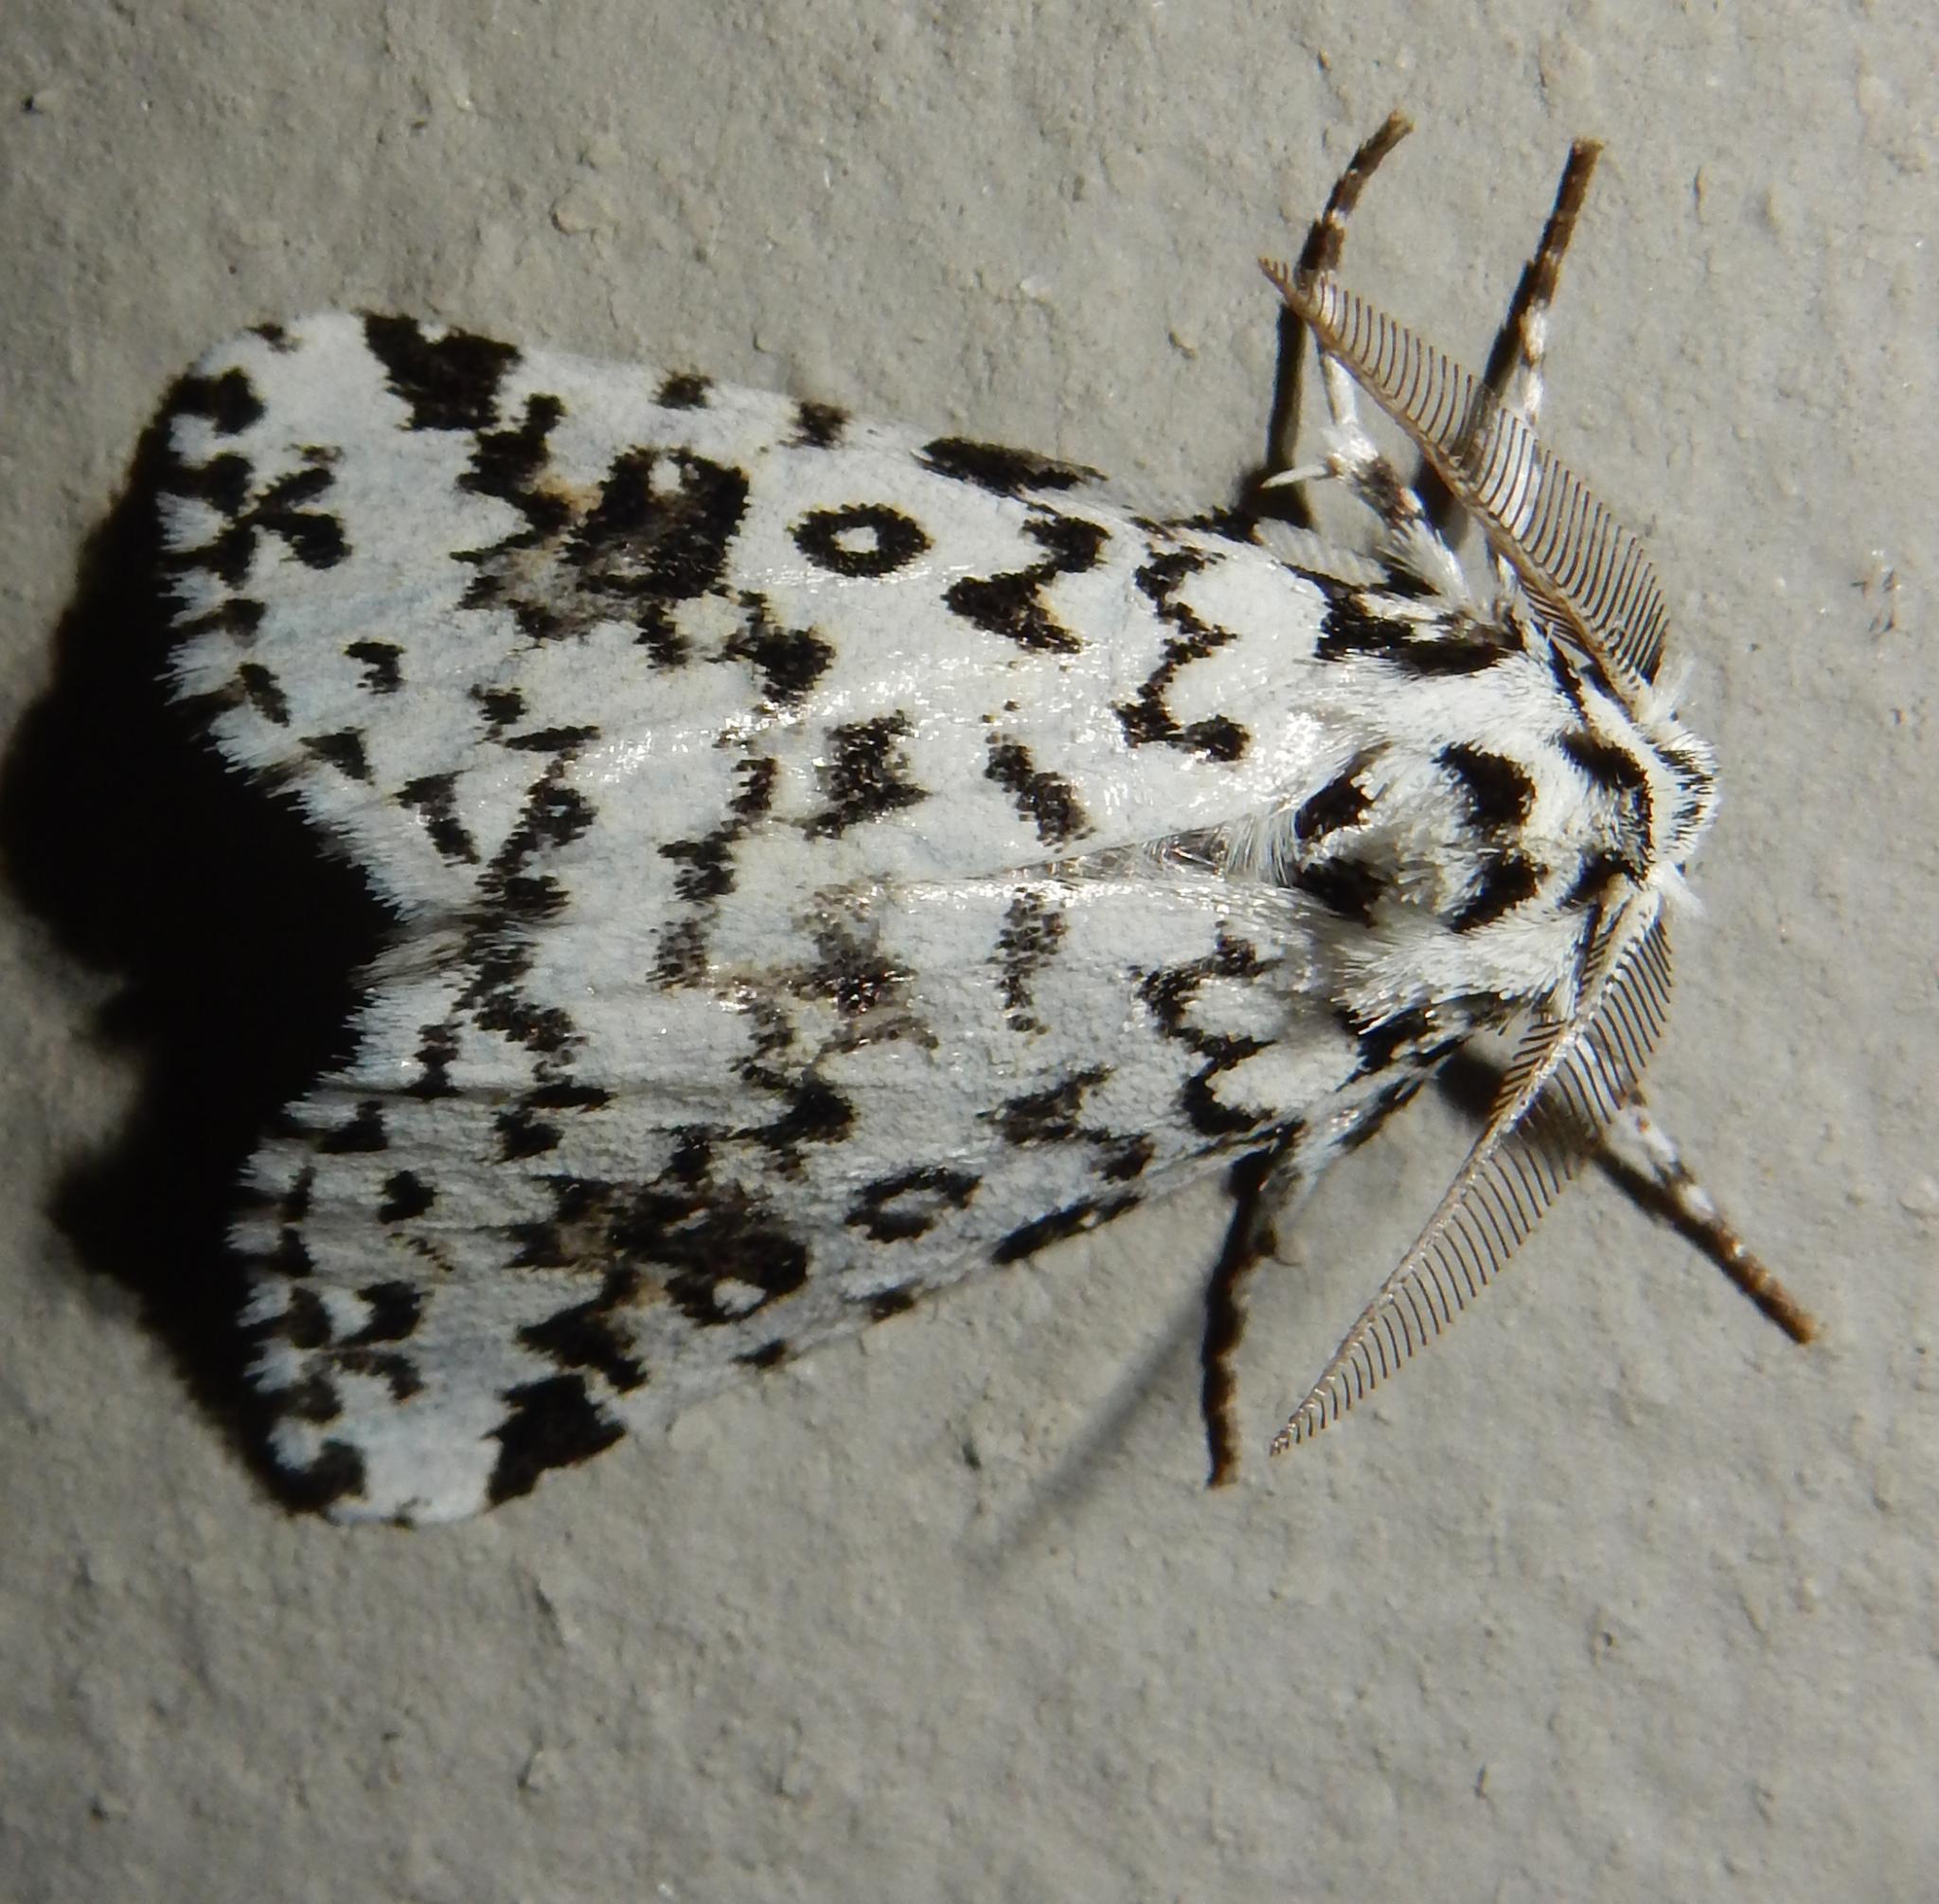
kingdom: Animalia
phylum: Arthropoda
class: Insecta
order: Lepidoptera
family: Erebidae
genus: Dasychira
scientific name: Dasychira octophora
